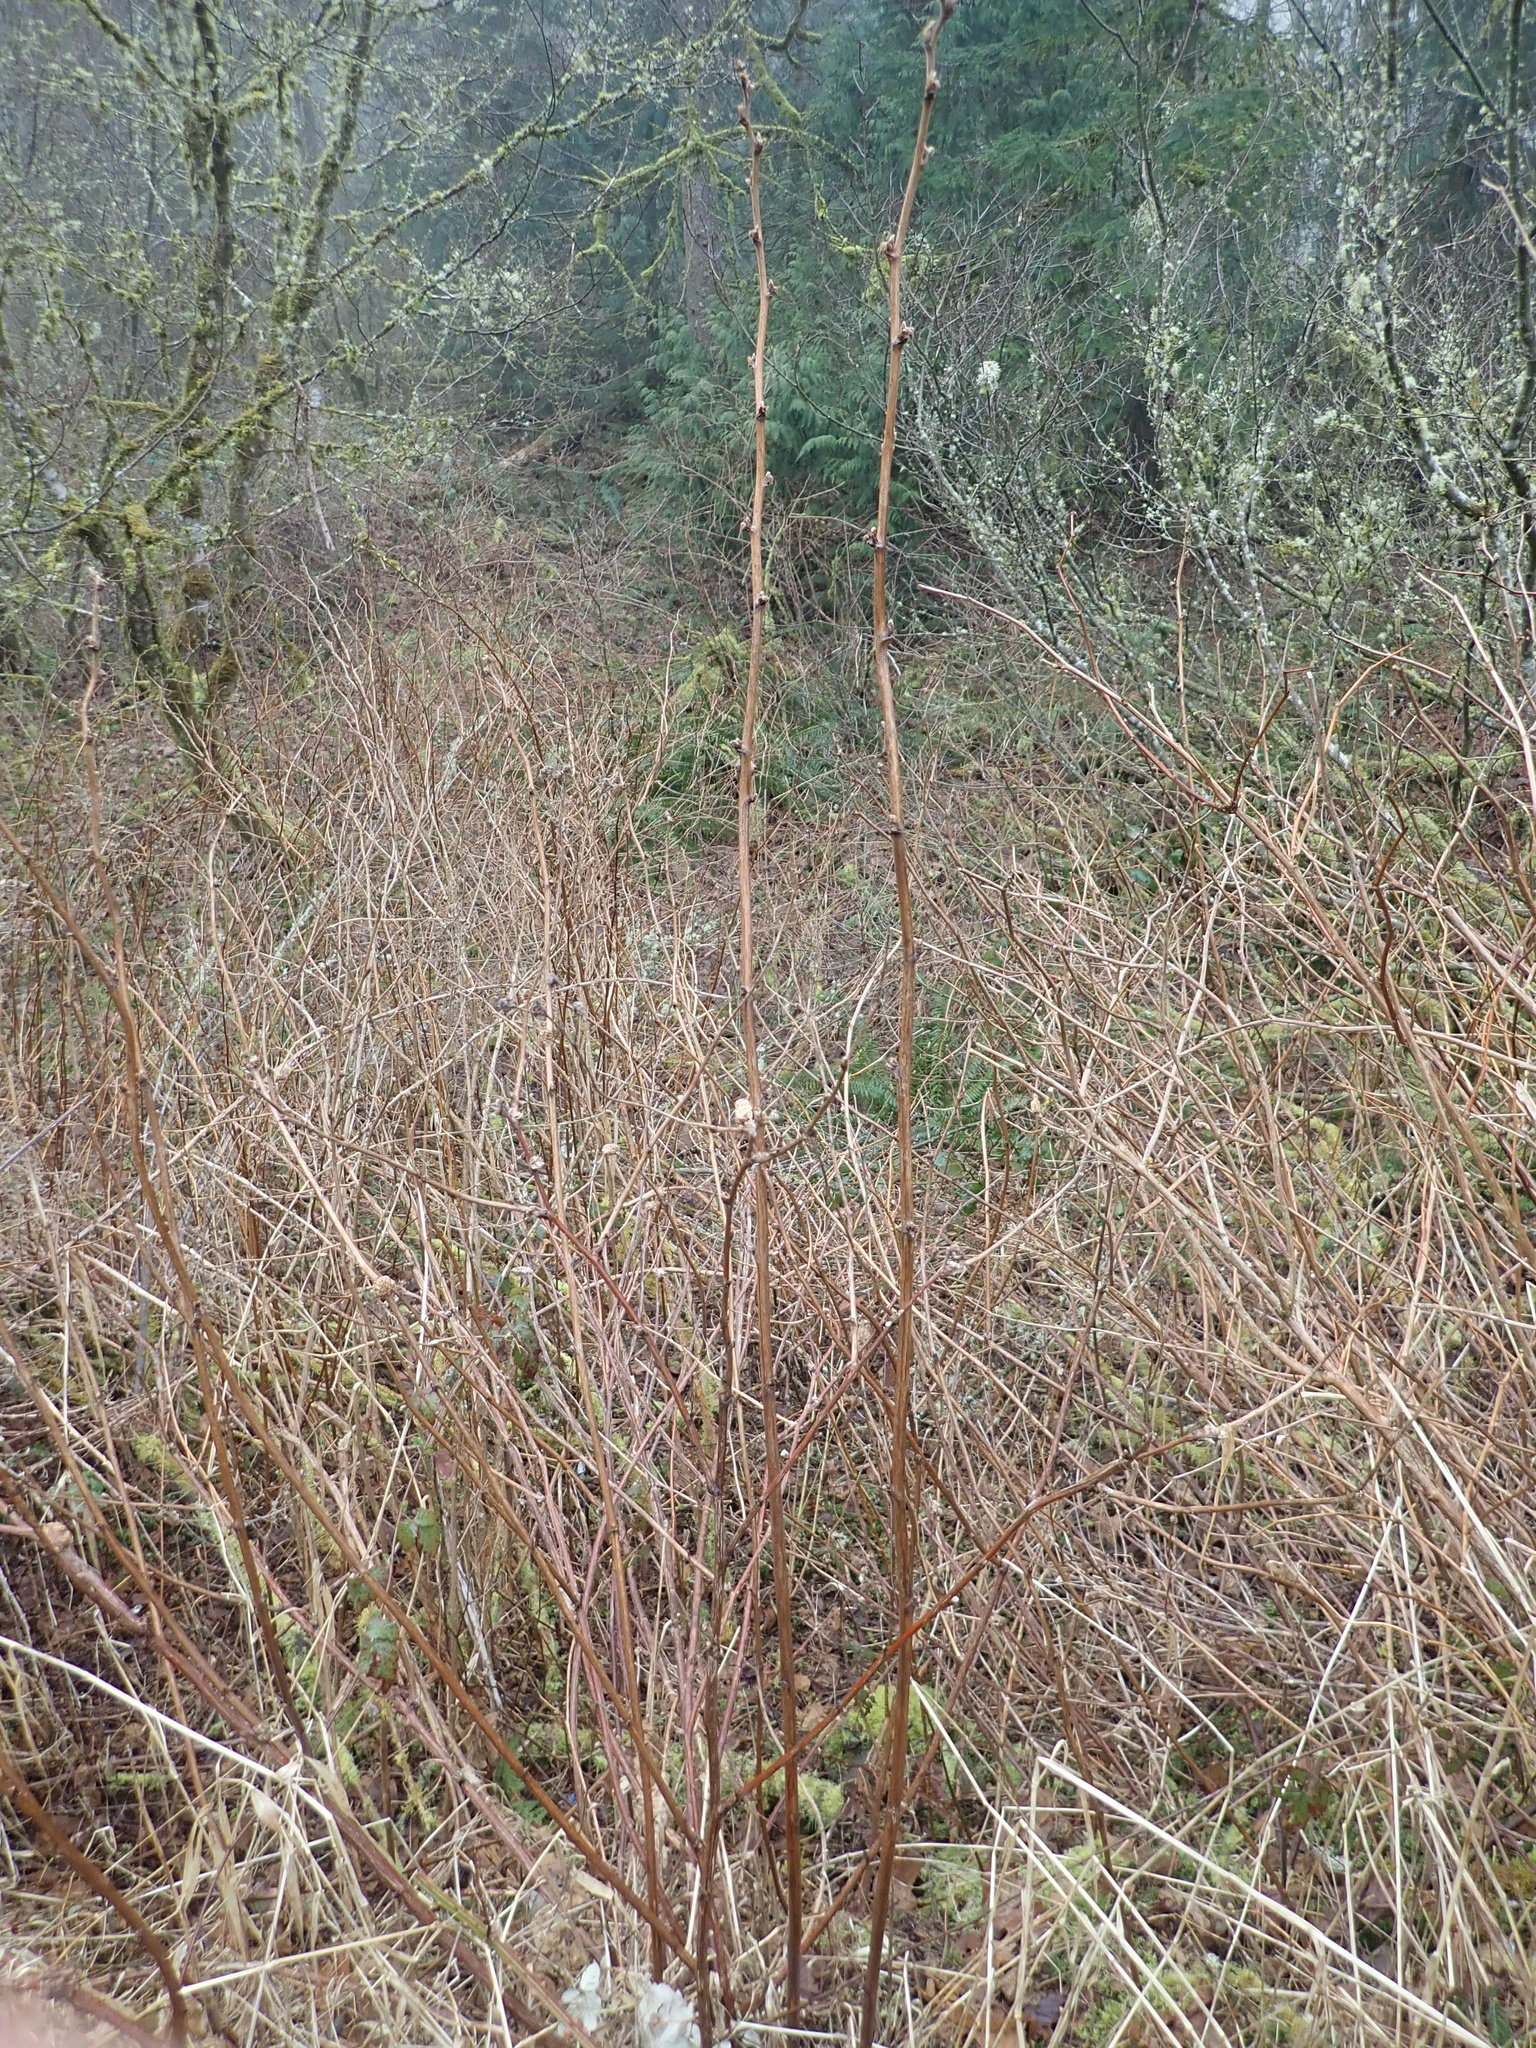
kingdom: Plantae
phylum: Tracheophyta
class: Magnoliopsida
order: Rosales
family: Rosaceae
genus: Rubus
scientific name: Rubus parviflorus
